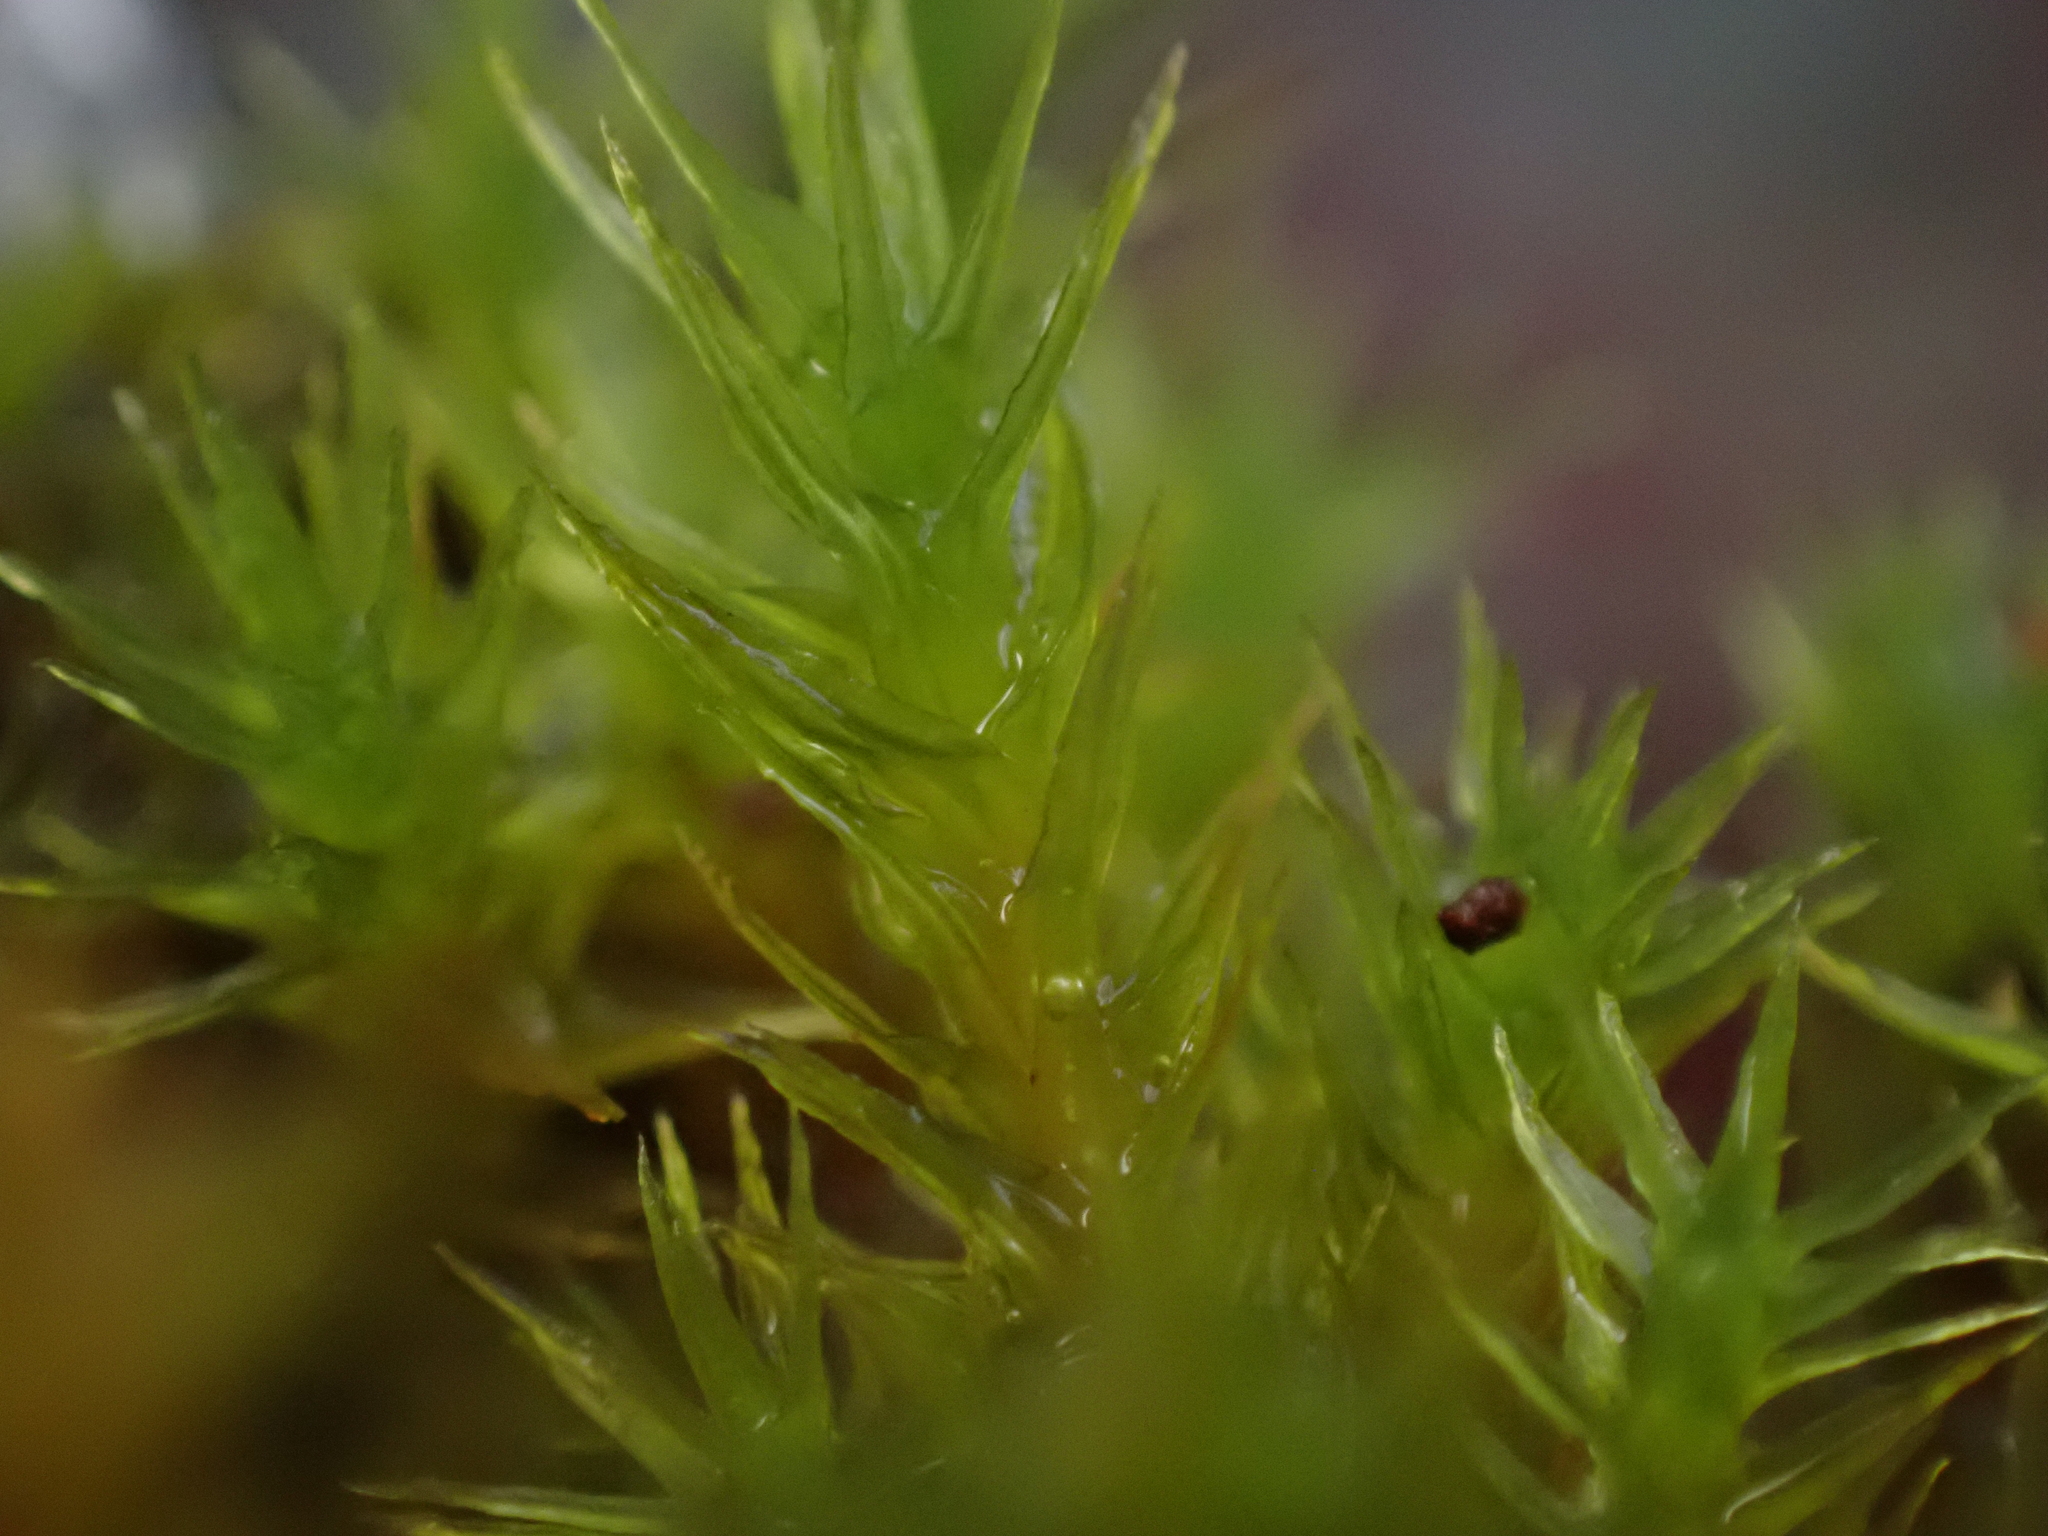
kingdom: Plantae
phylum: Bryophyta
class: Bryopsida
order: Orthotrichales
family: Orthotrichaceae
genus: Pulvigera
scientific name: Pulvigera papillosa
